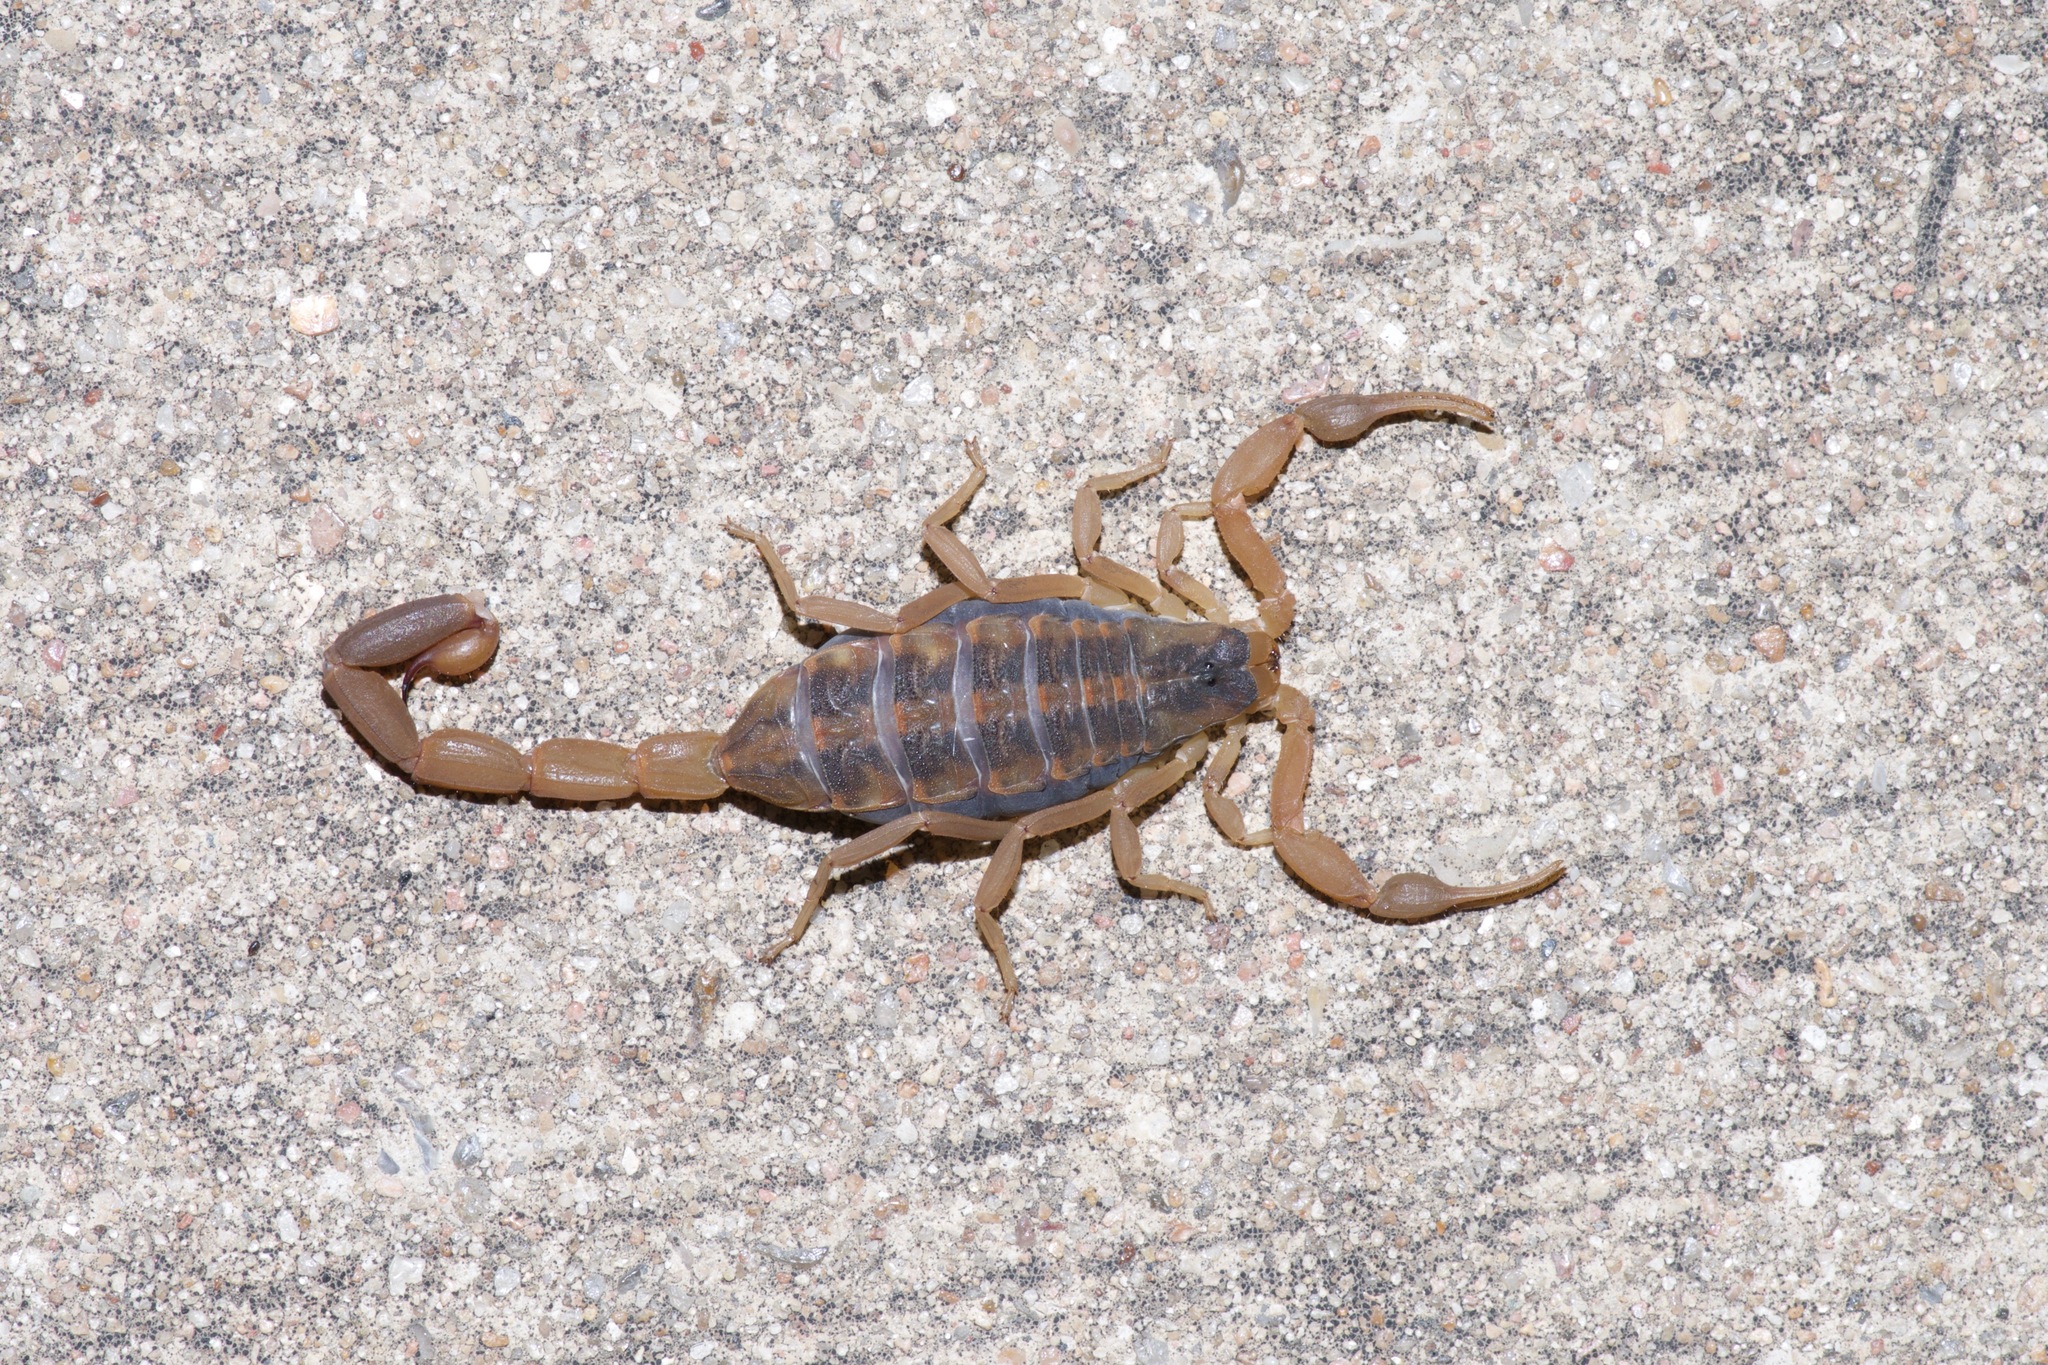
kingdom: Animalia
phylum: Arthropoda
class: Arachnida
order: Scorpiones
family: Buthidae
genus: Centruroides
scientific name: Centruroides vittatus
